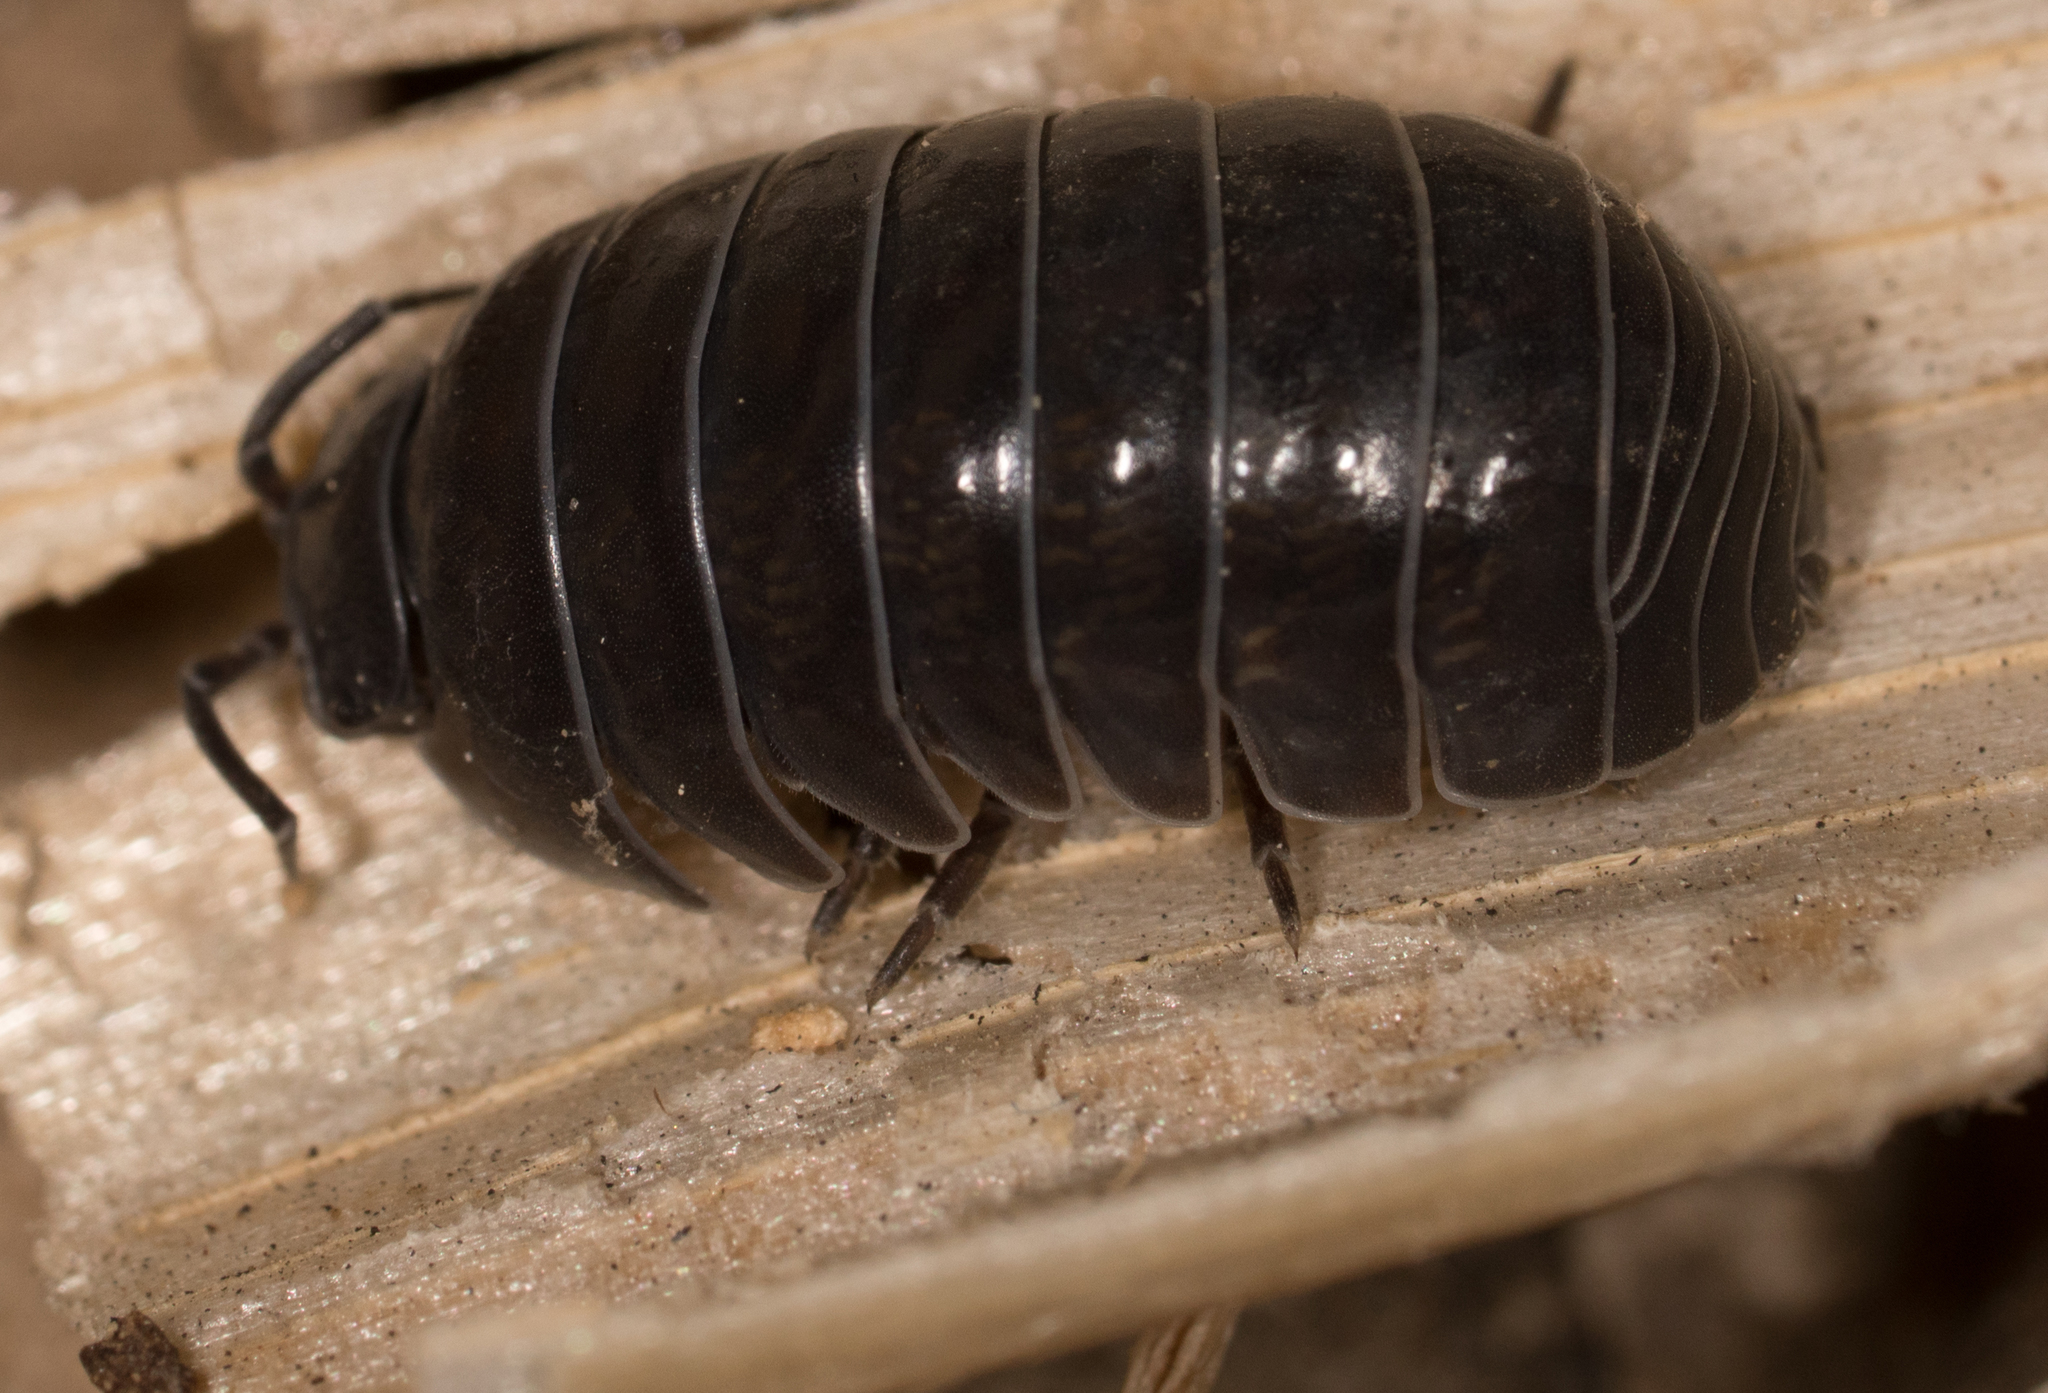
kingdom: Animalia
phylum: Arthropoda
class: Malacostraca
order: Isopoda
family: Armadillidiidae
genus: Armadillidium
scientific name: Armadillidium vulgare
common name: Common pill woodlouse
